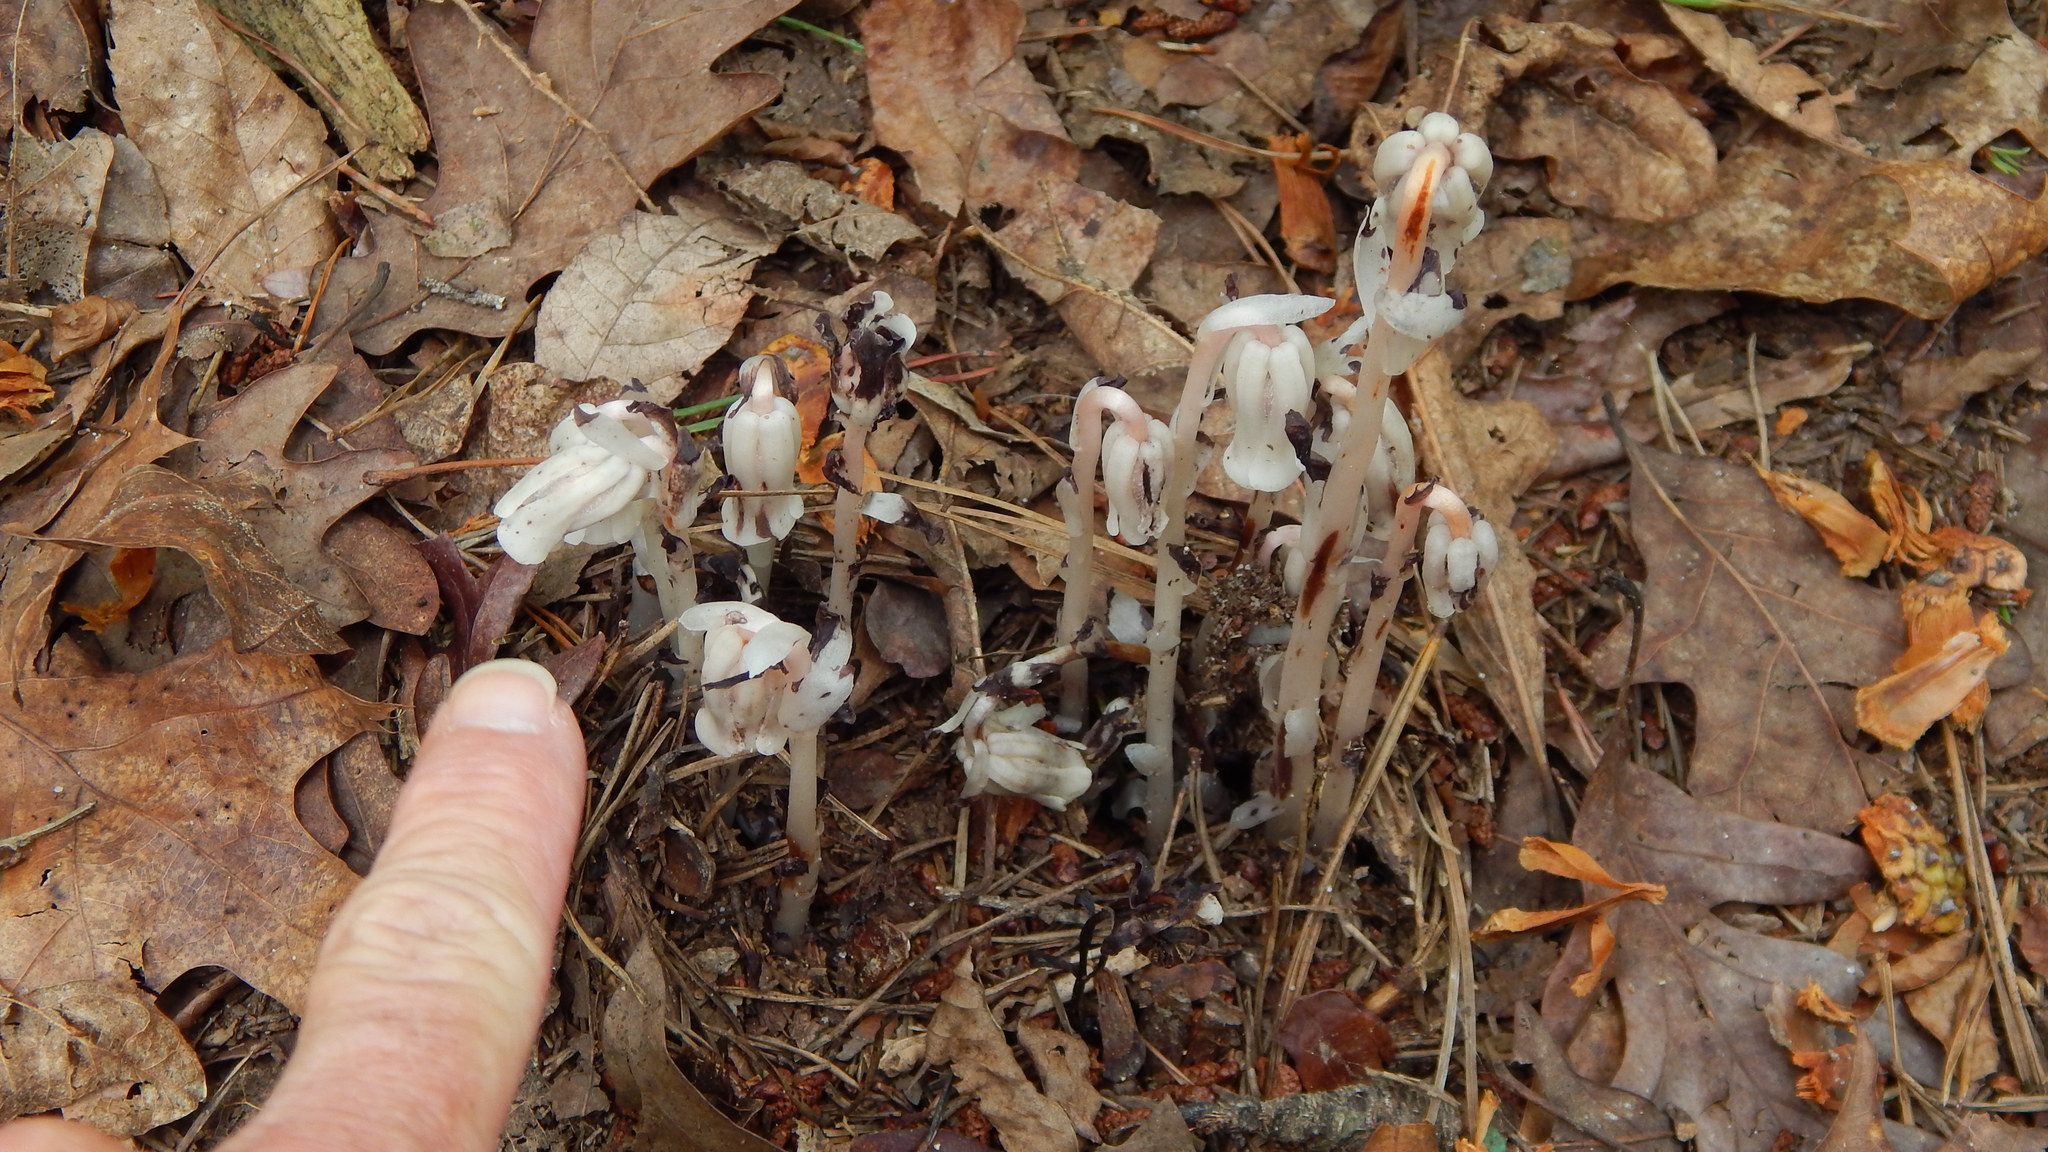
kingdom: Plantae
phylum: Tracheophyta
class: Magnoliopsida
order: Ericales
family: Ericaceae
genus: Monotropa
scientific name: Monotropa uniflora
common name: Convulsion root
